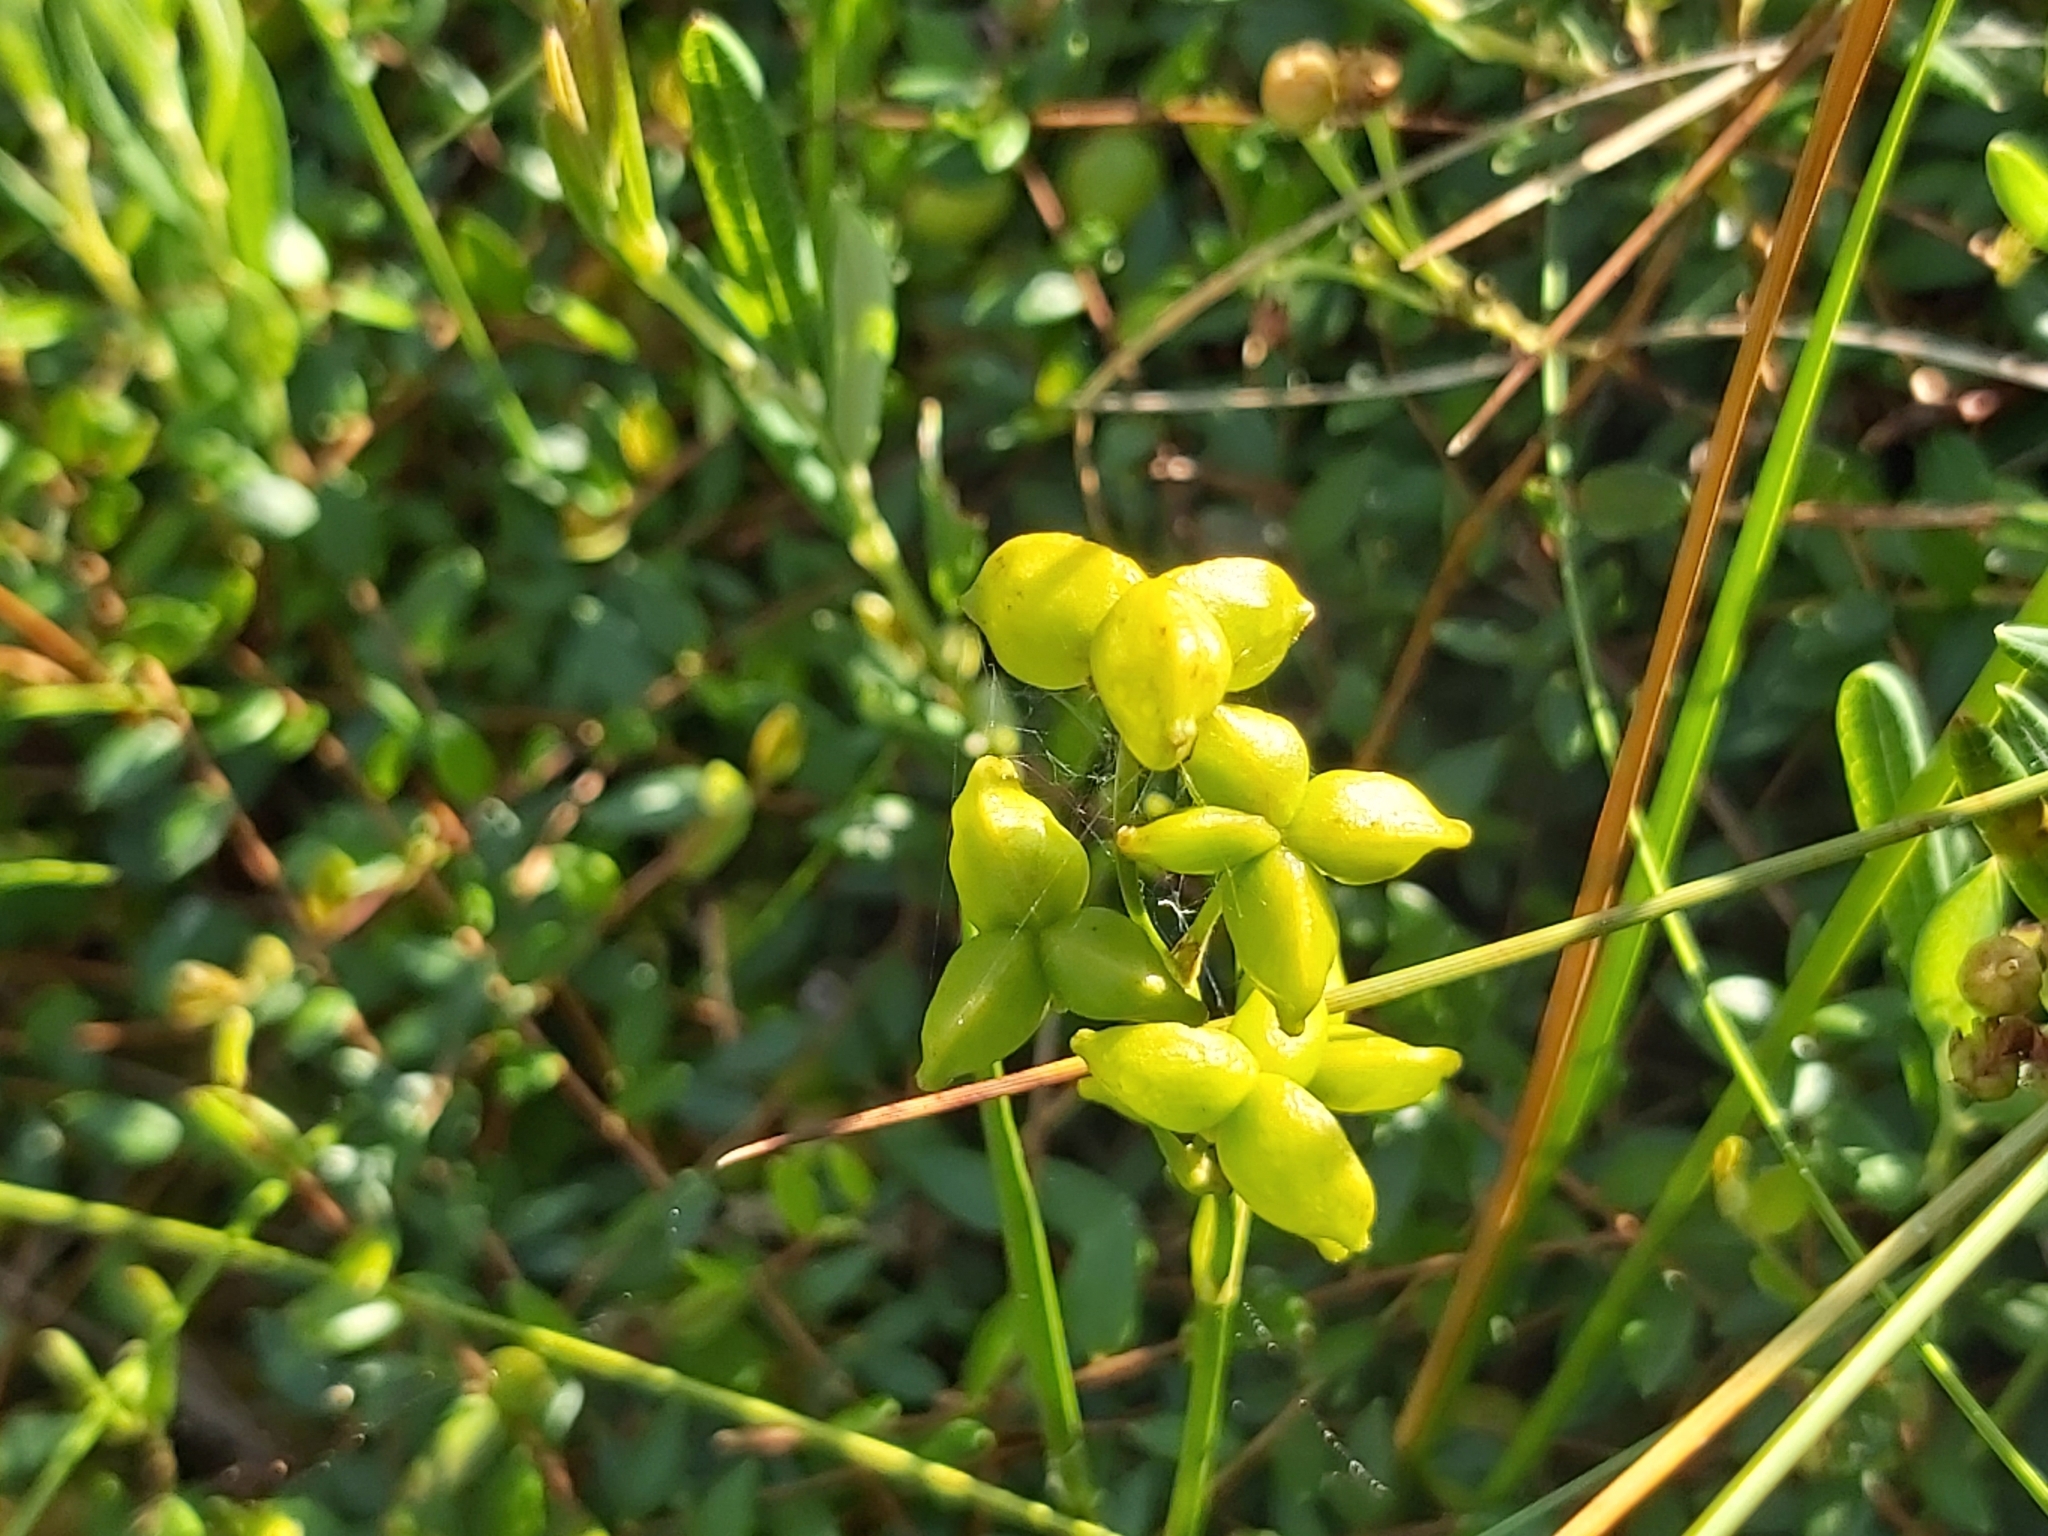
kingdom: Plantae
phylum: Tracheophyta
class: Liliopsida
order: Alismatales
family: Scheuchzeriaceae
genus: Scheuchzeria
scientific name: Scheuchzeria palustris
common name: Rannoch-rush
